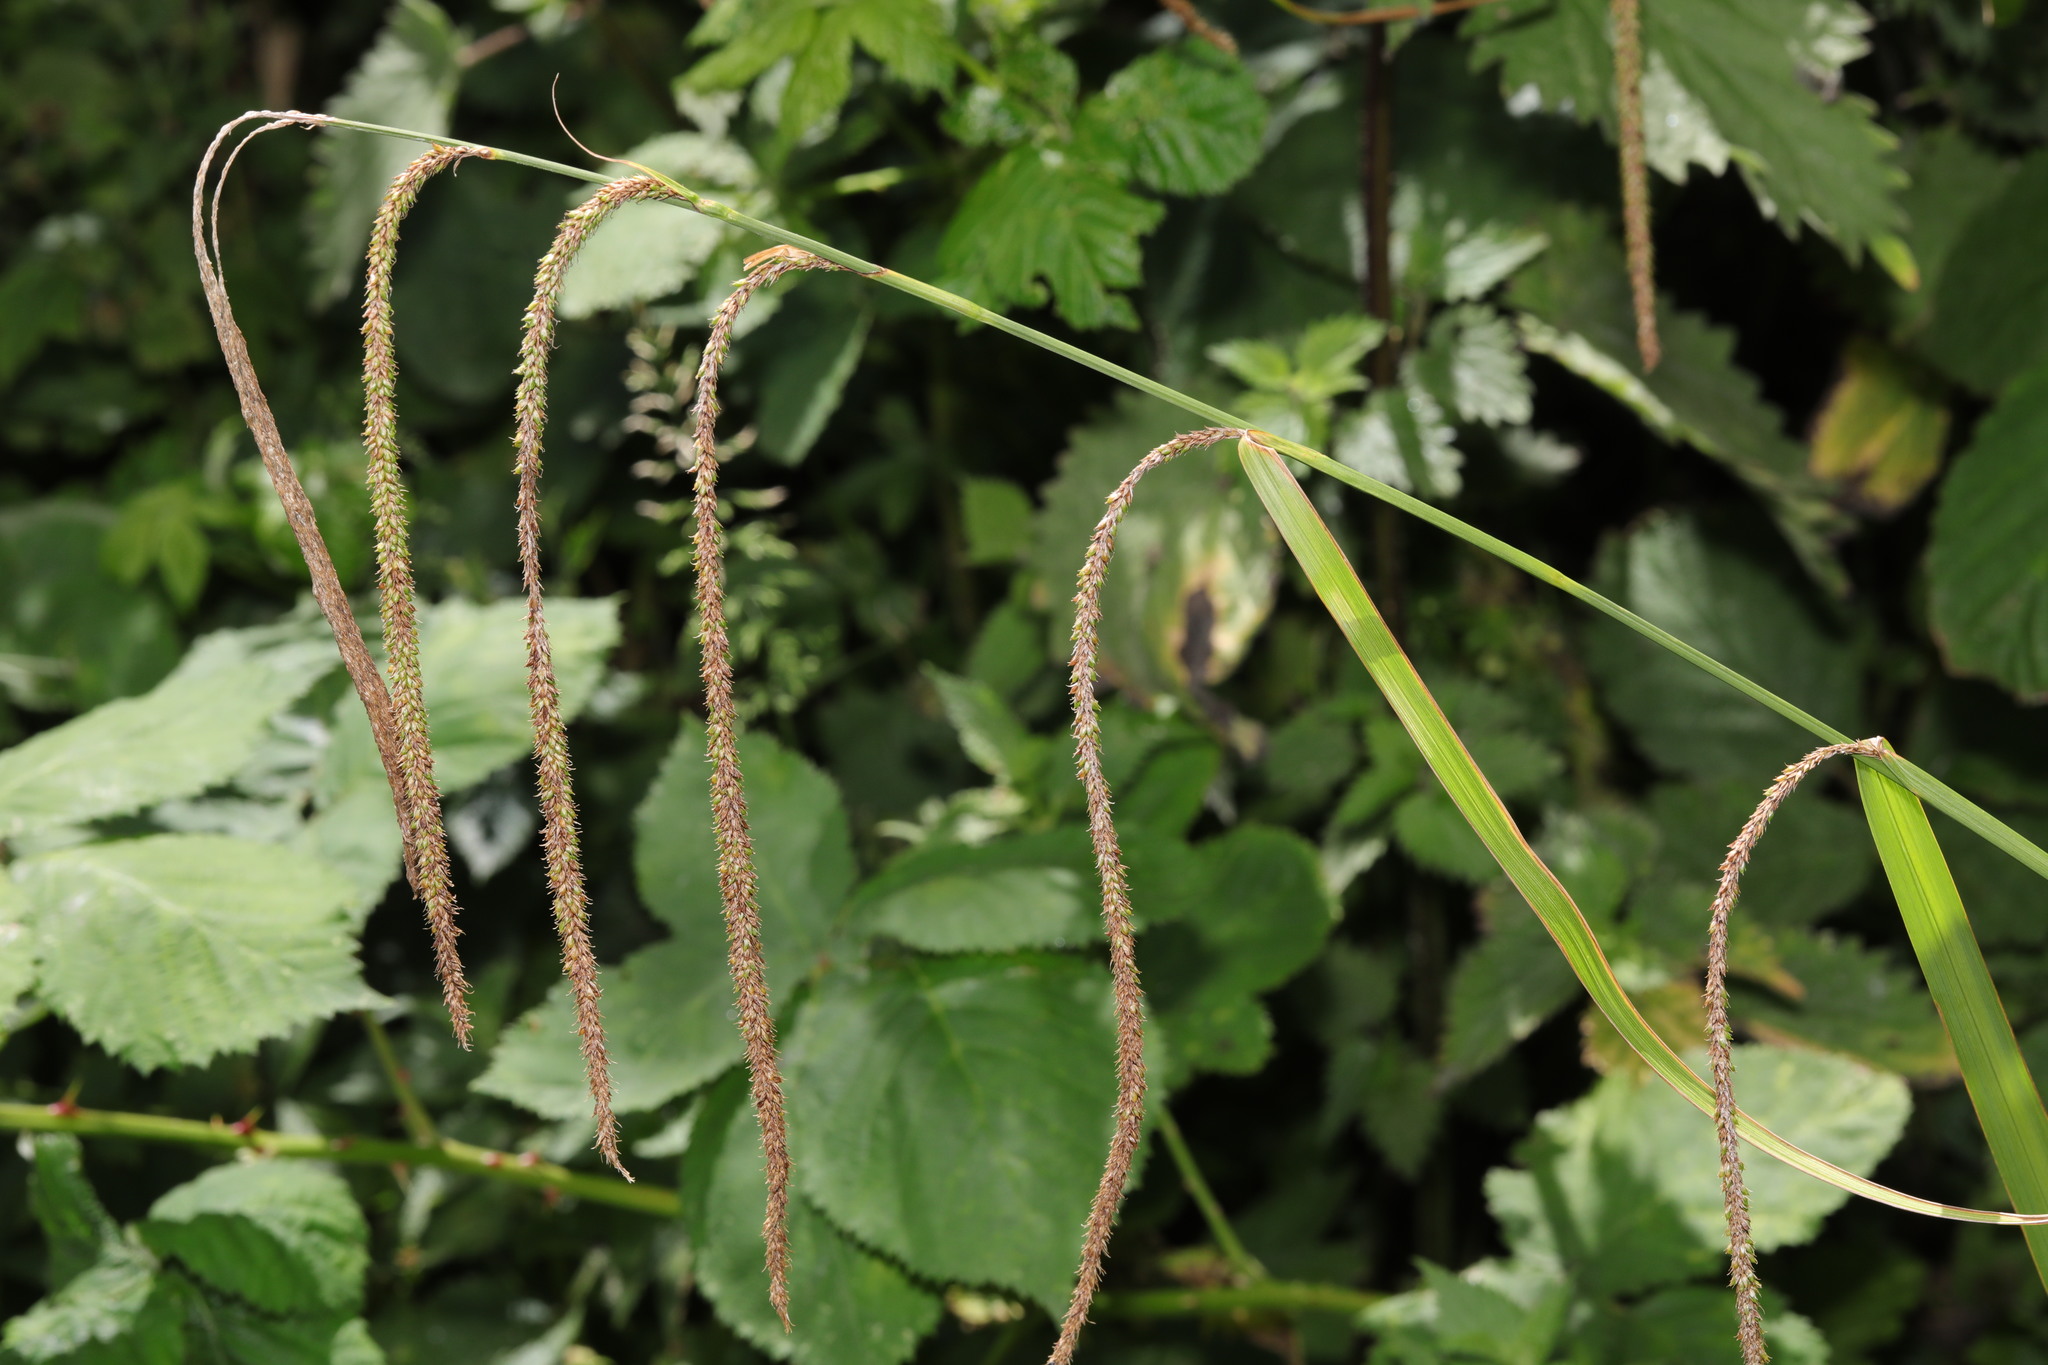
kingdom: Plantae
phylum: Tracheophyta
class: Liliopsida
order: Poales
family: Cyperaceae
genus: Carex
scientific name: Carex pendula
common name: Pendulous sedge
